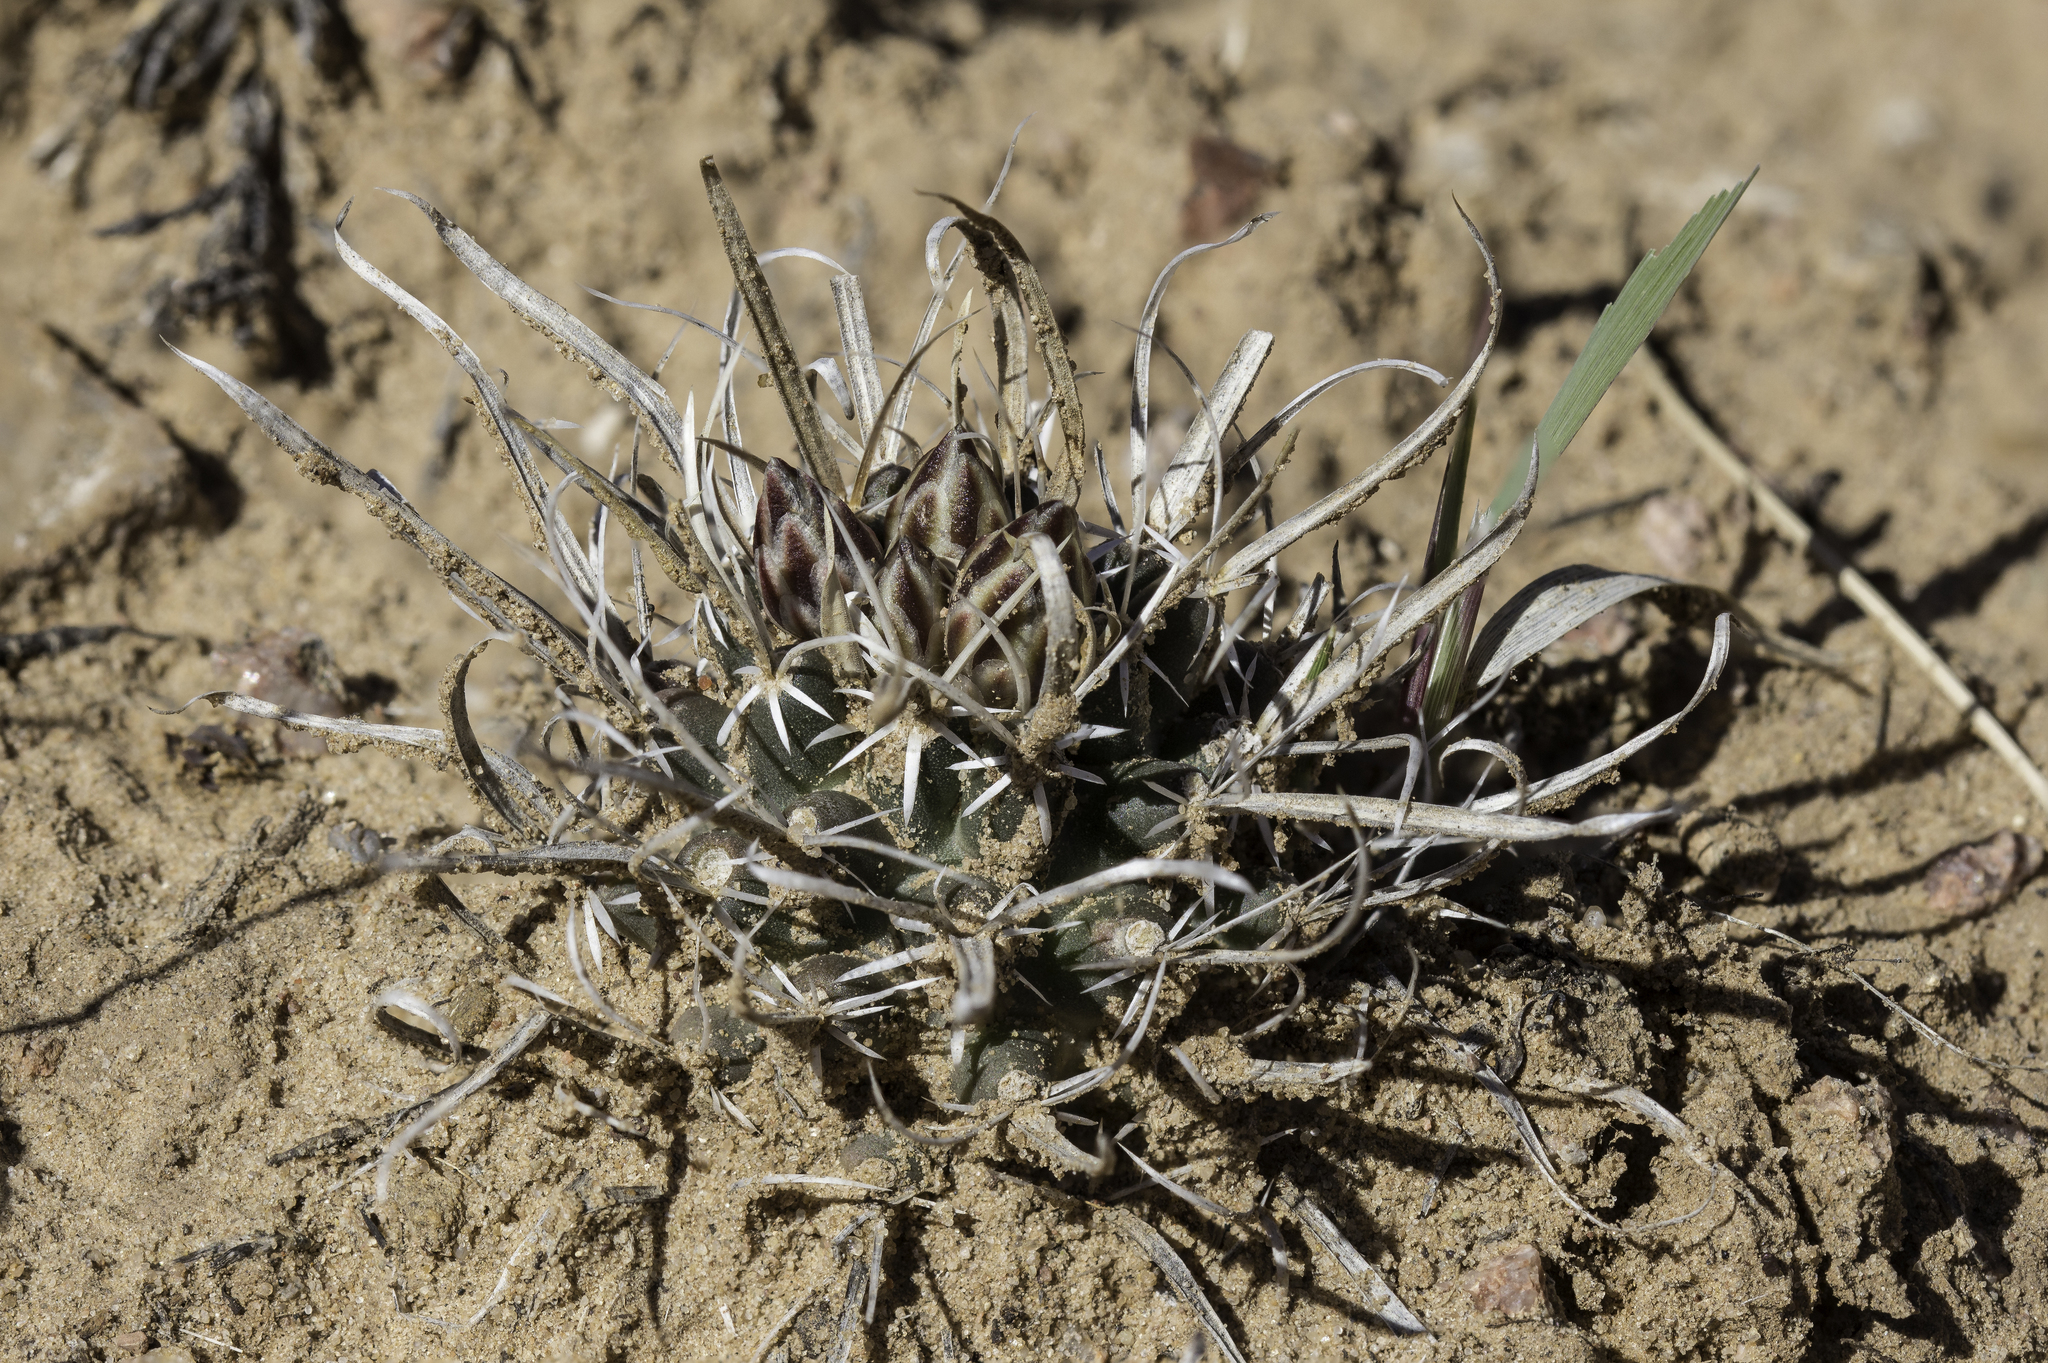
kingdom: Plantae
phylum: Tracheophyta
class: Magnoliopsida
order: Caryophyllales
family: Cactaceae
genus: Sclerocactus
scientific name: Sclerocactus papyracanthus
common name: Grama grass cactus
